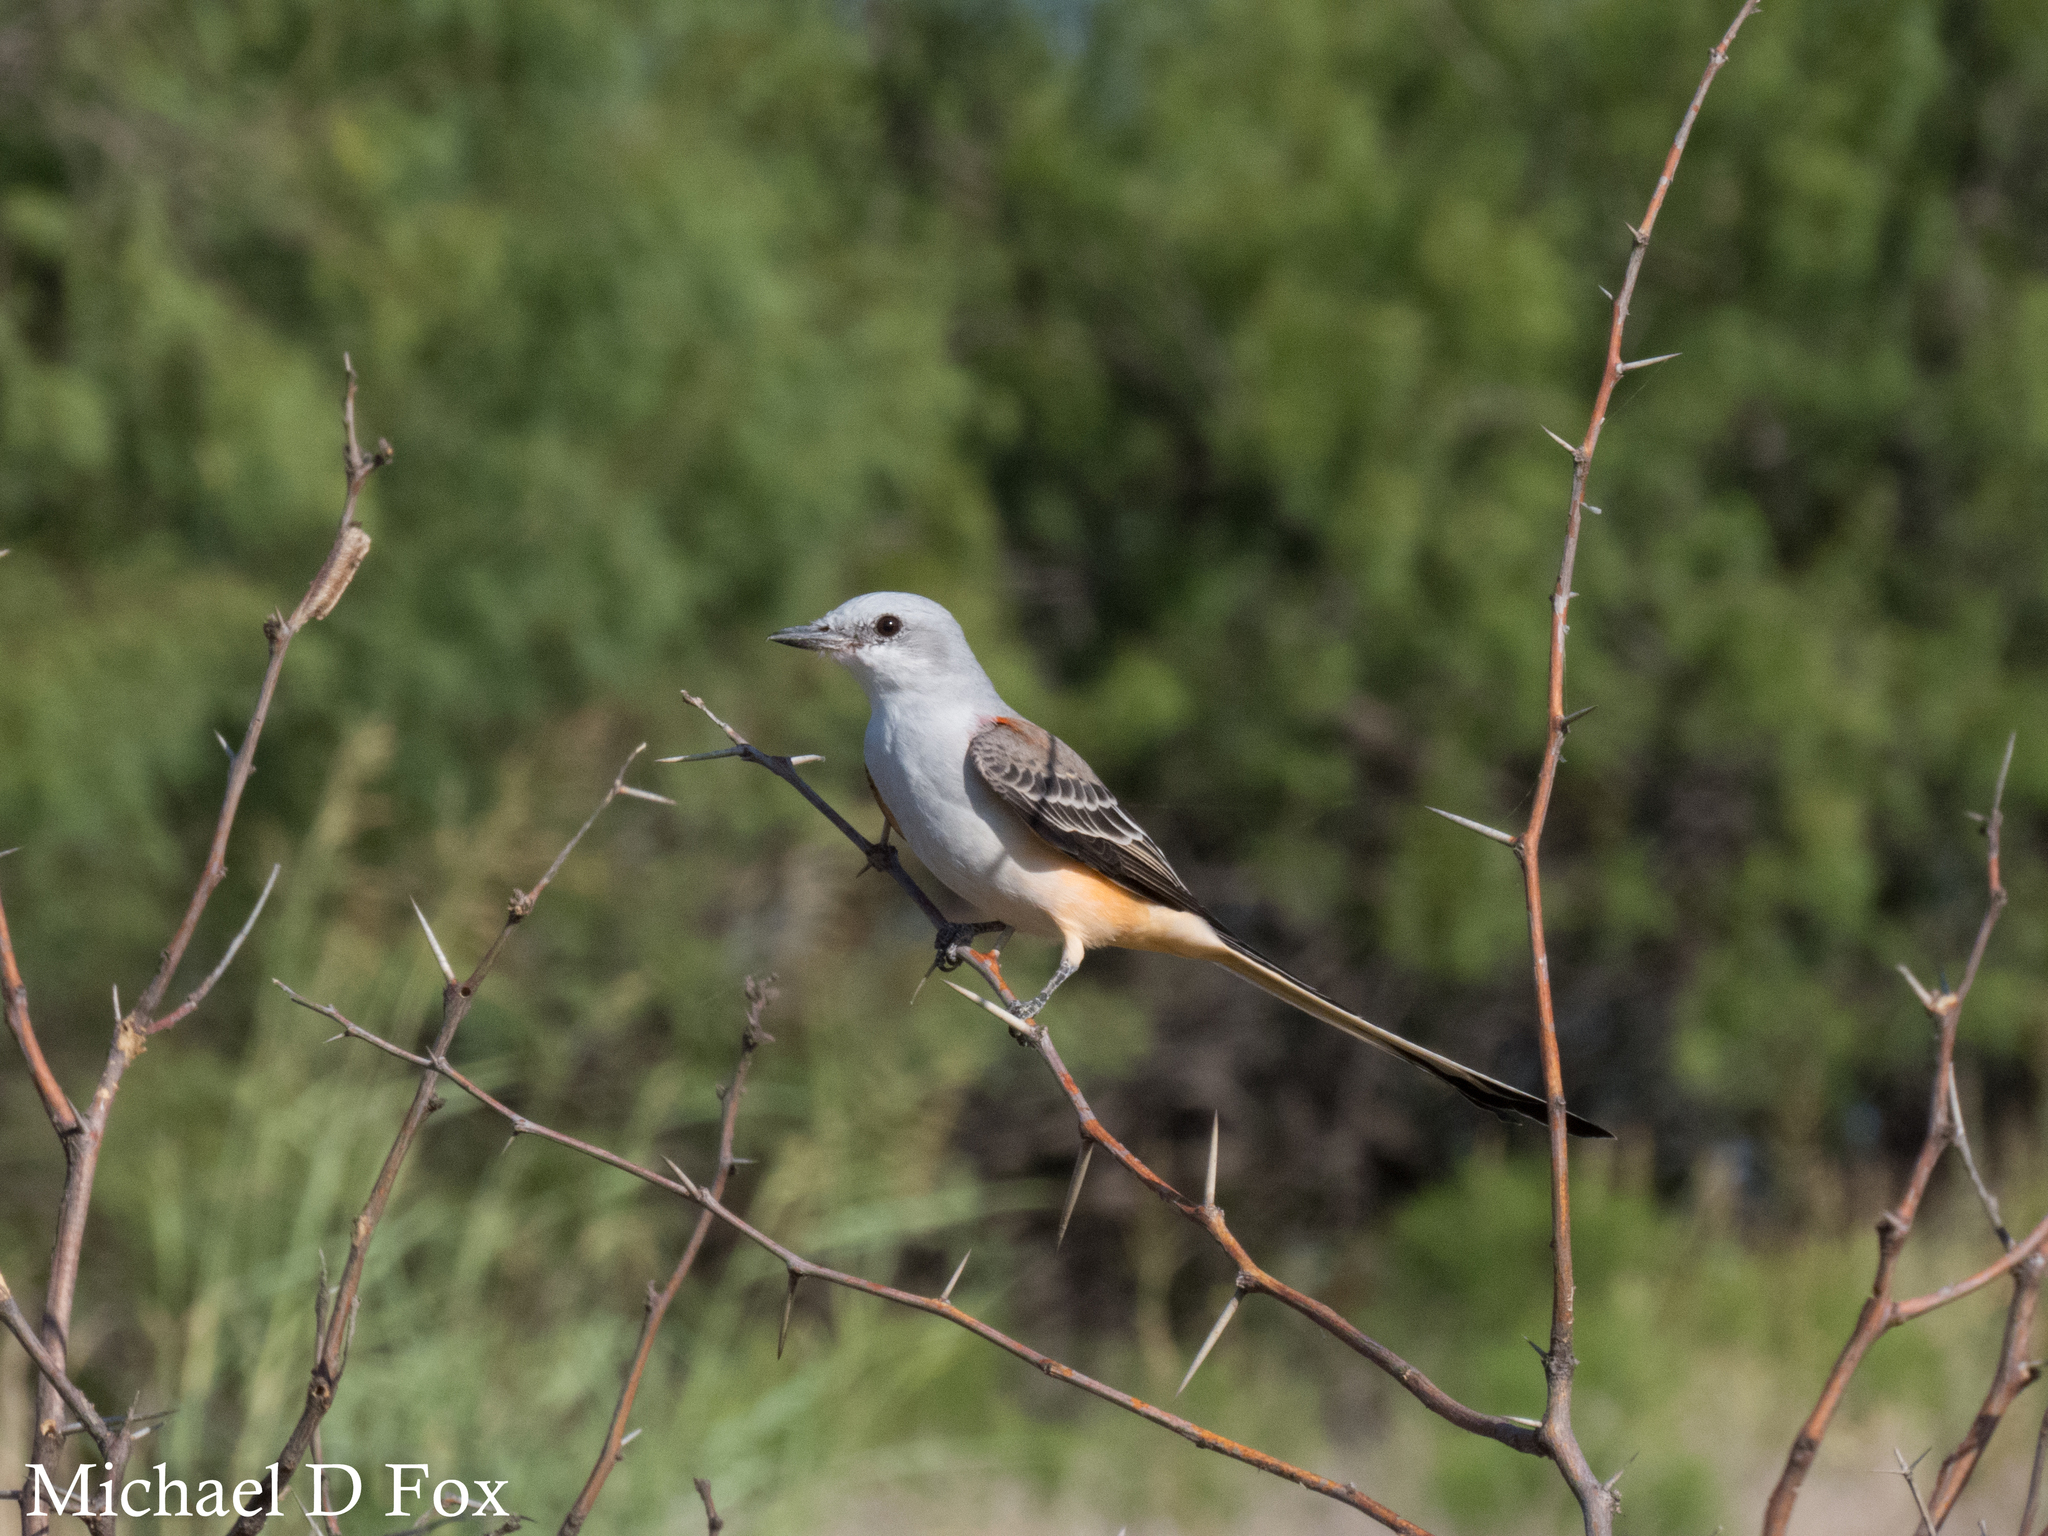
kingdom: Animalia
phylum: Chordata
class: Aves
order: Passeriformes
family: Tyrannidae
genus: Tyrannus
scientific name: Tyrannus forficatus
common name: Scissor-tailed flycatcher
